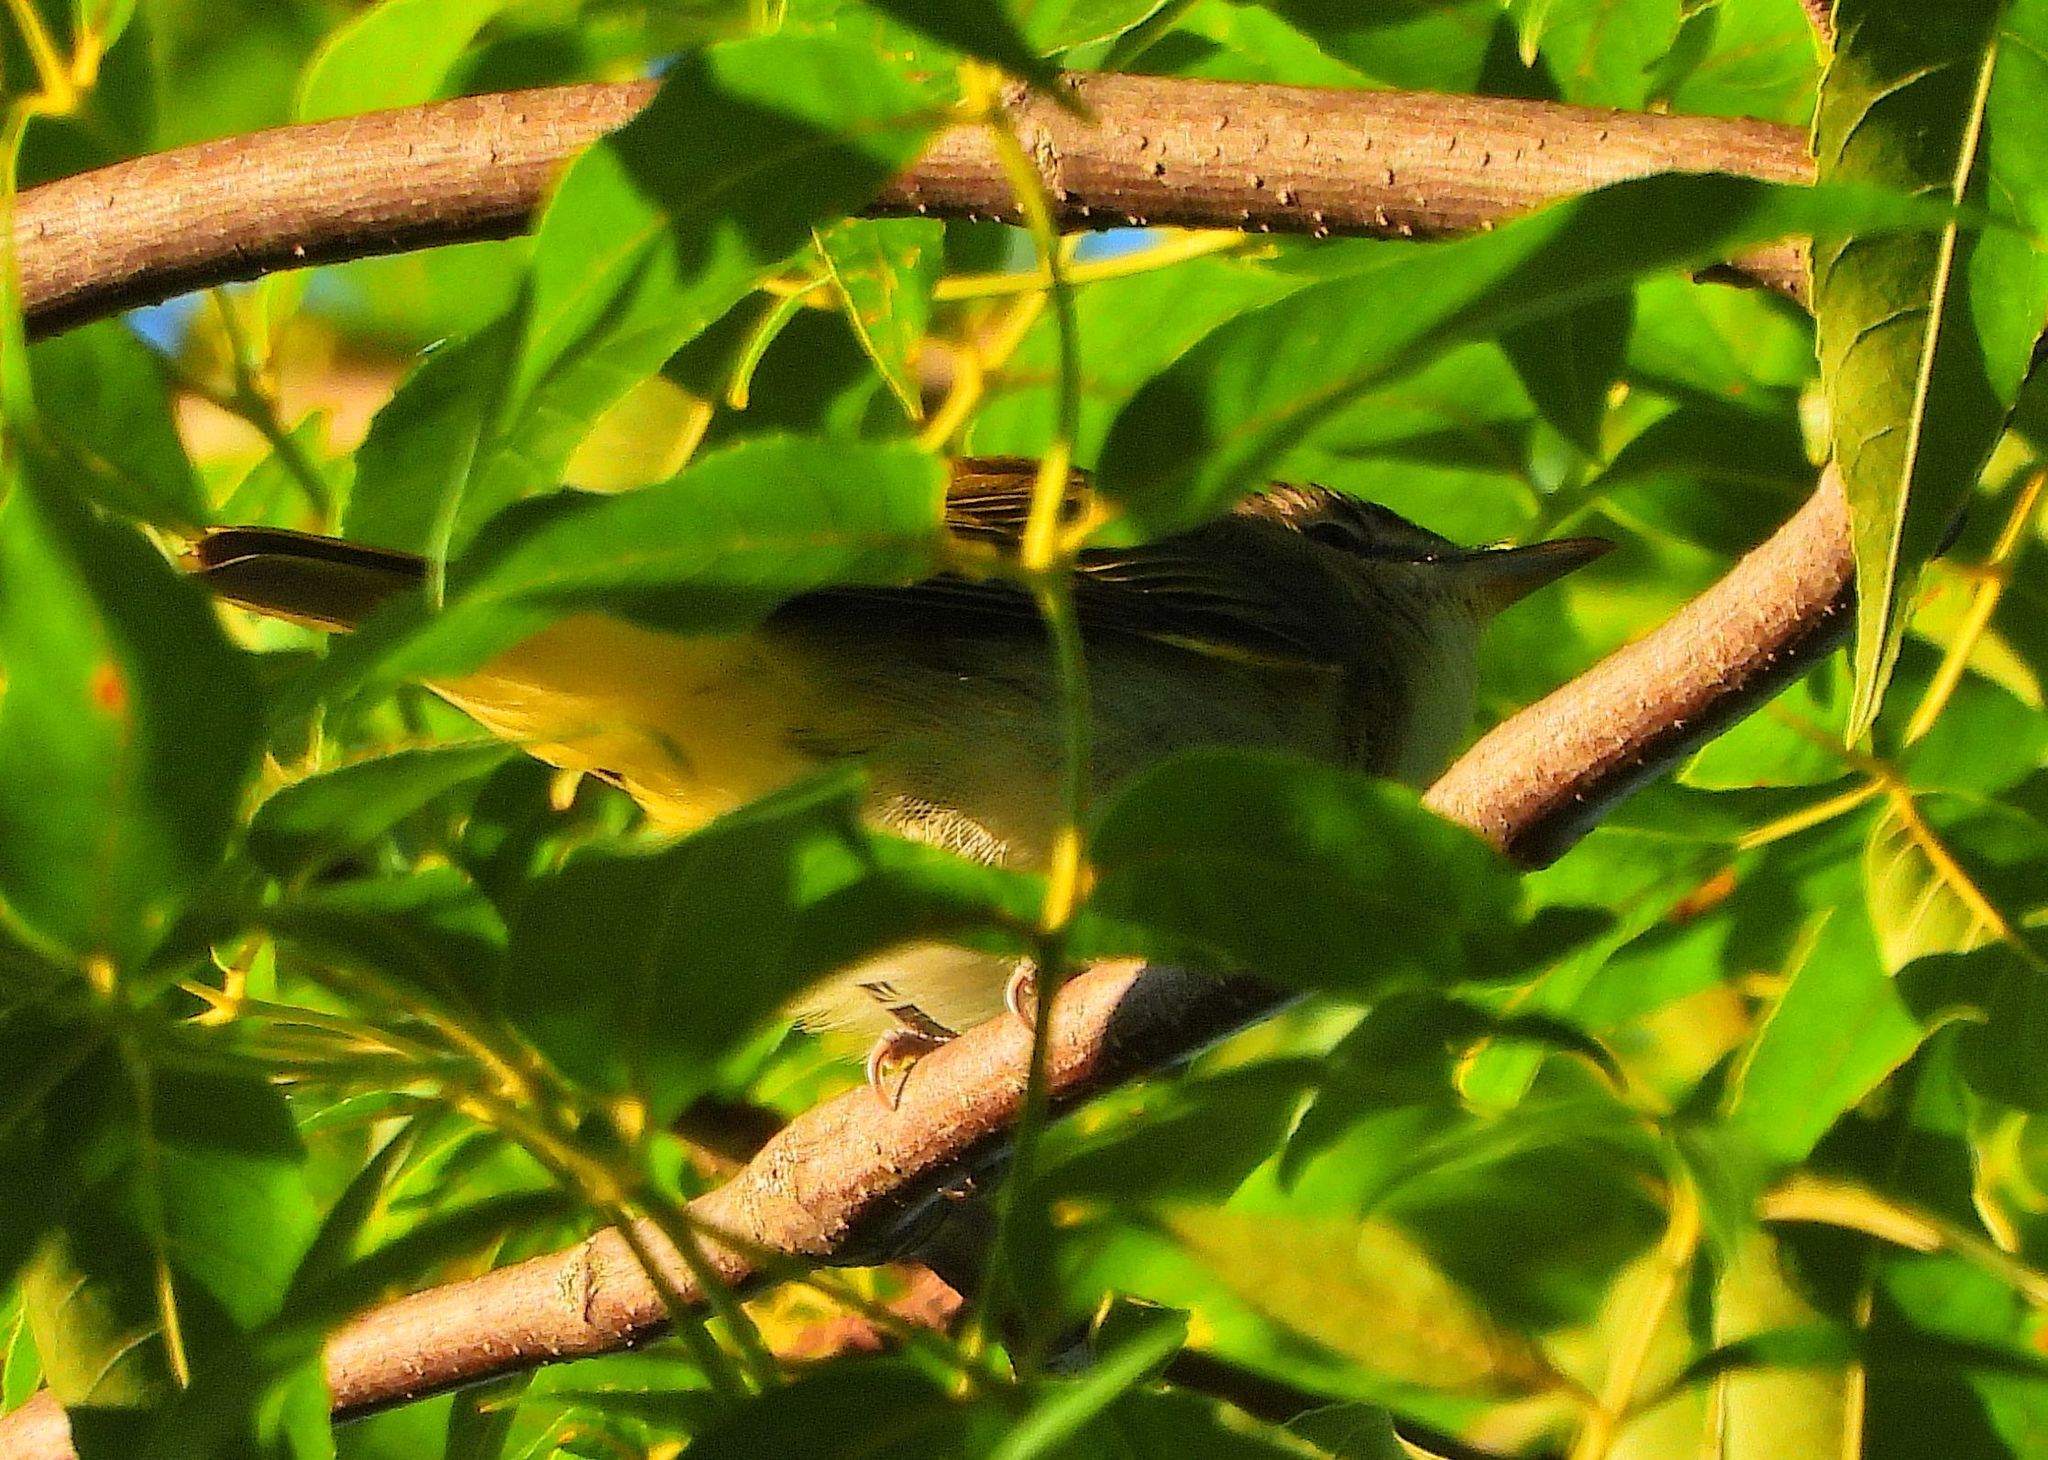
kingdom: Animalia
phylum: Chordata
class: Aves
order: Passeriformes
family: Vireonidae
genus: Vireo
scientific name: Vireo olivaceus
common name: Red-eyed vireo
